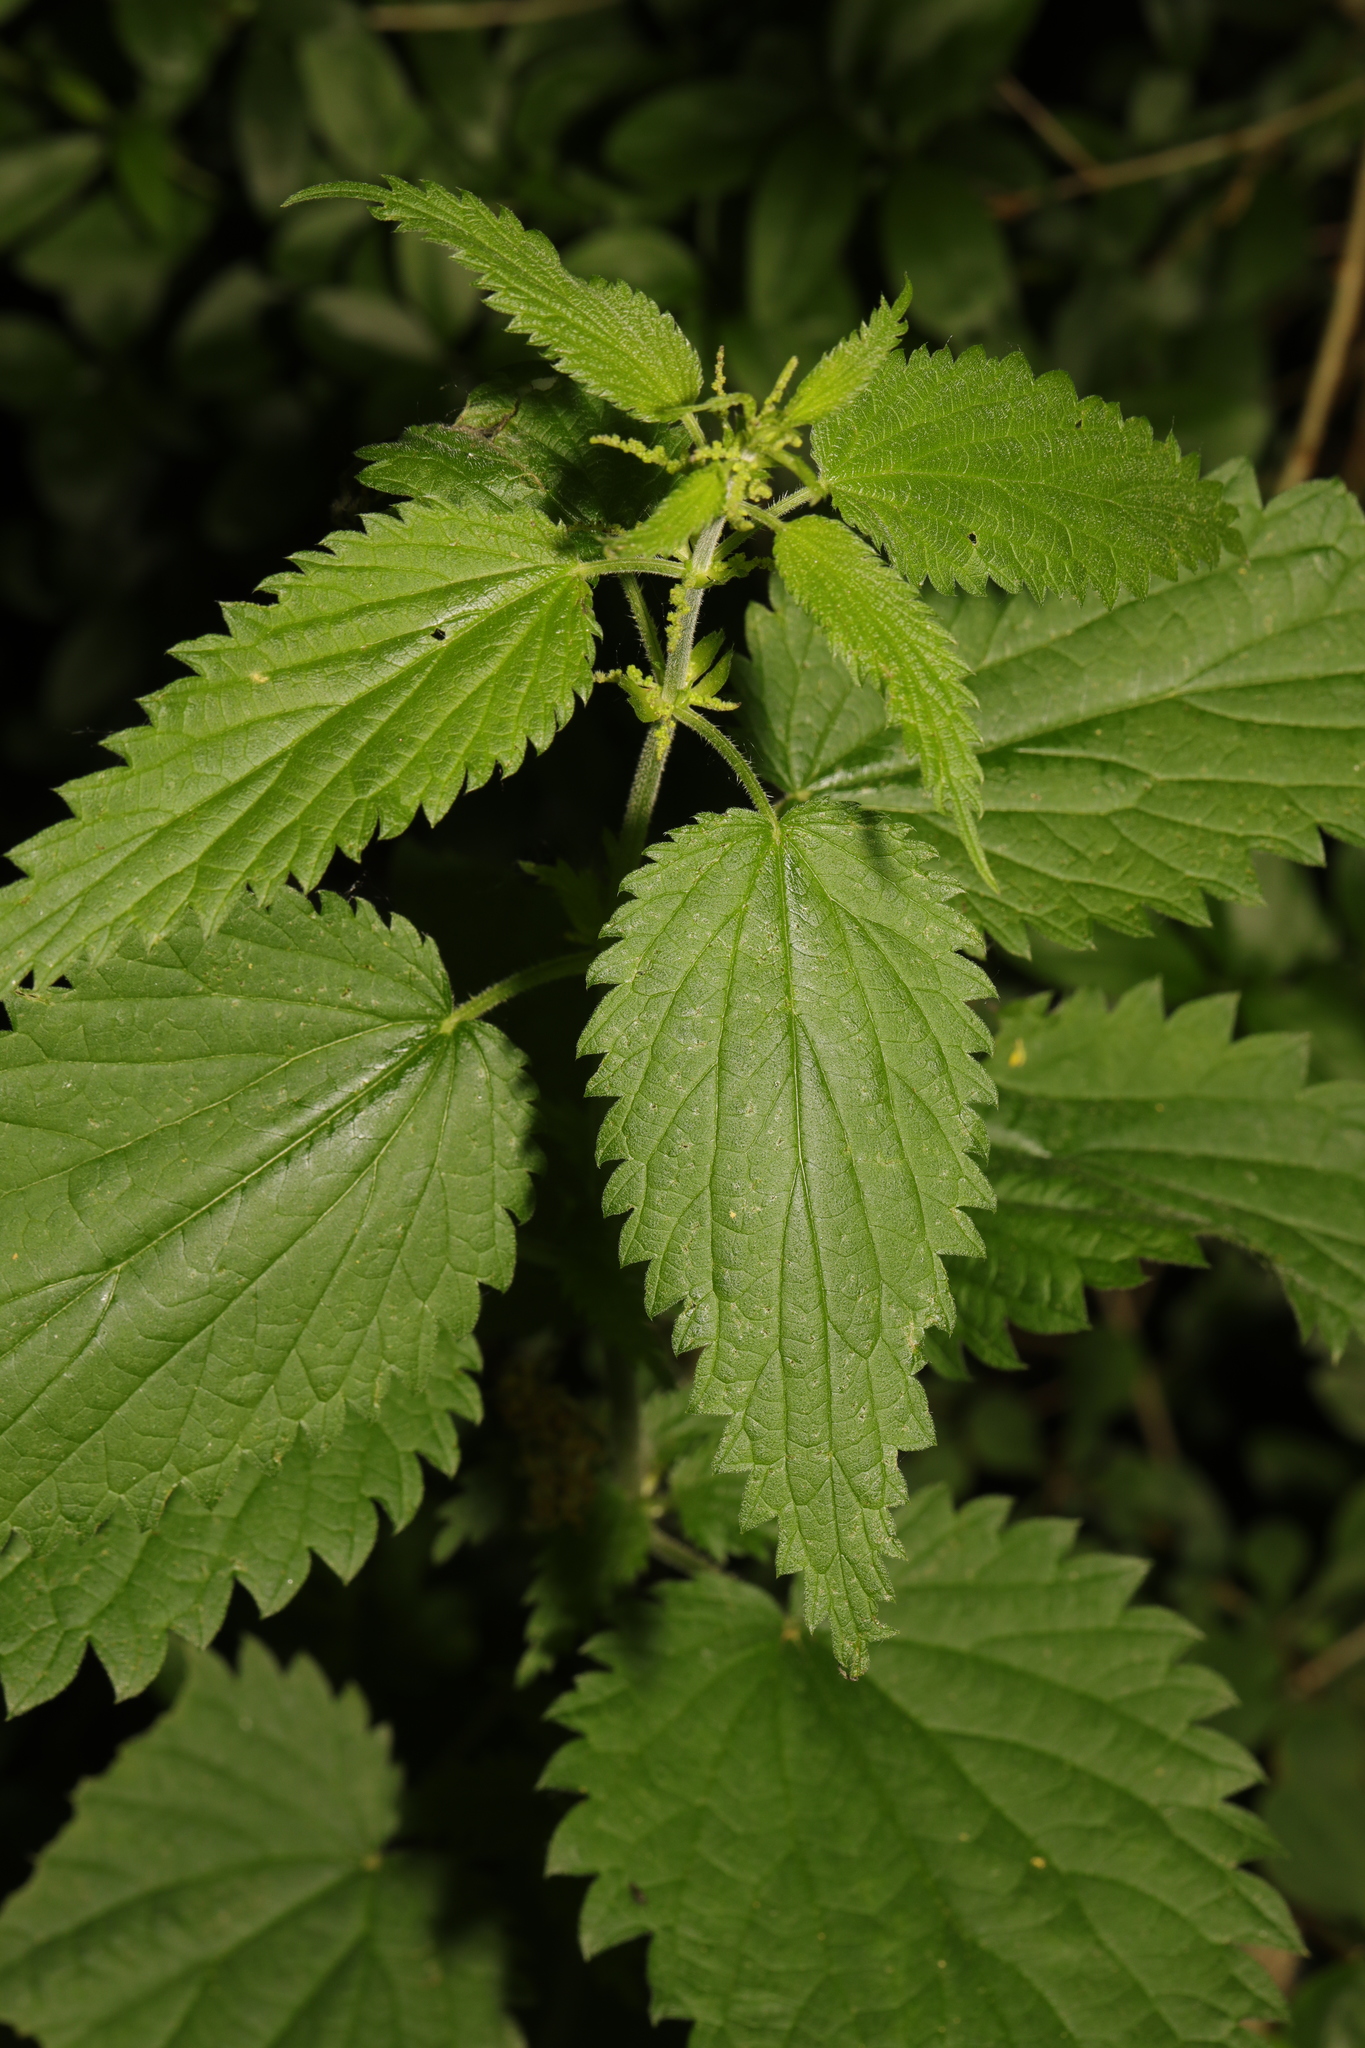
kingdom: Plantae
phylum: Tracheophyta
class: Magnoliopsida
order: Rosales
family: Urticaceae
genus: Urtica
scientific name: Urtica dioica
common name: Common nettle
